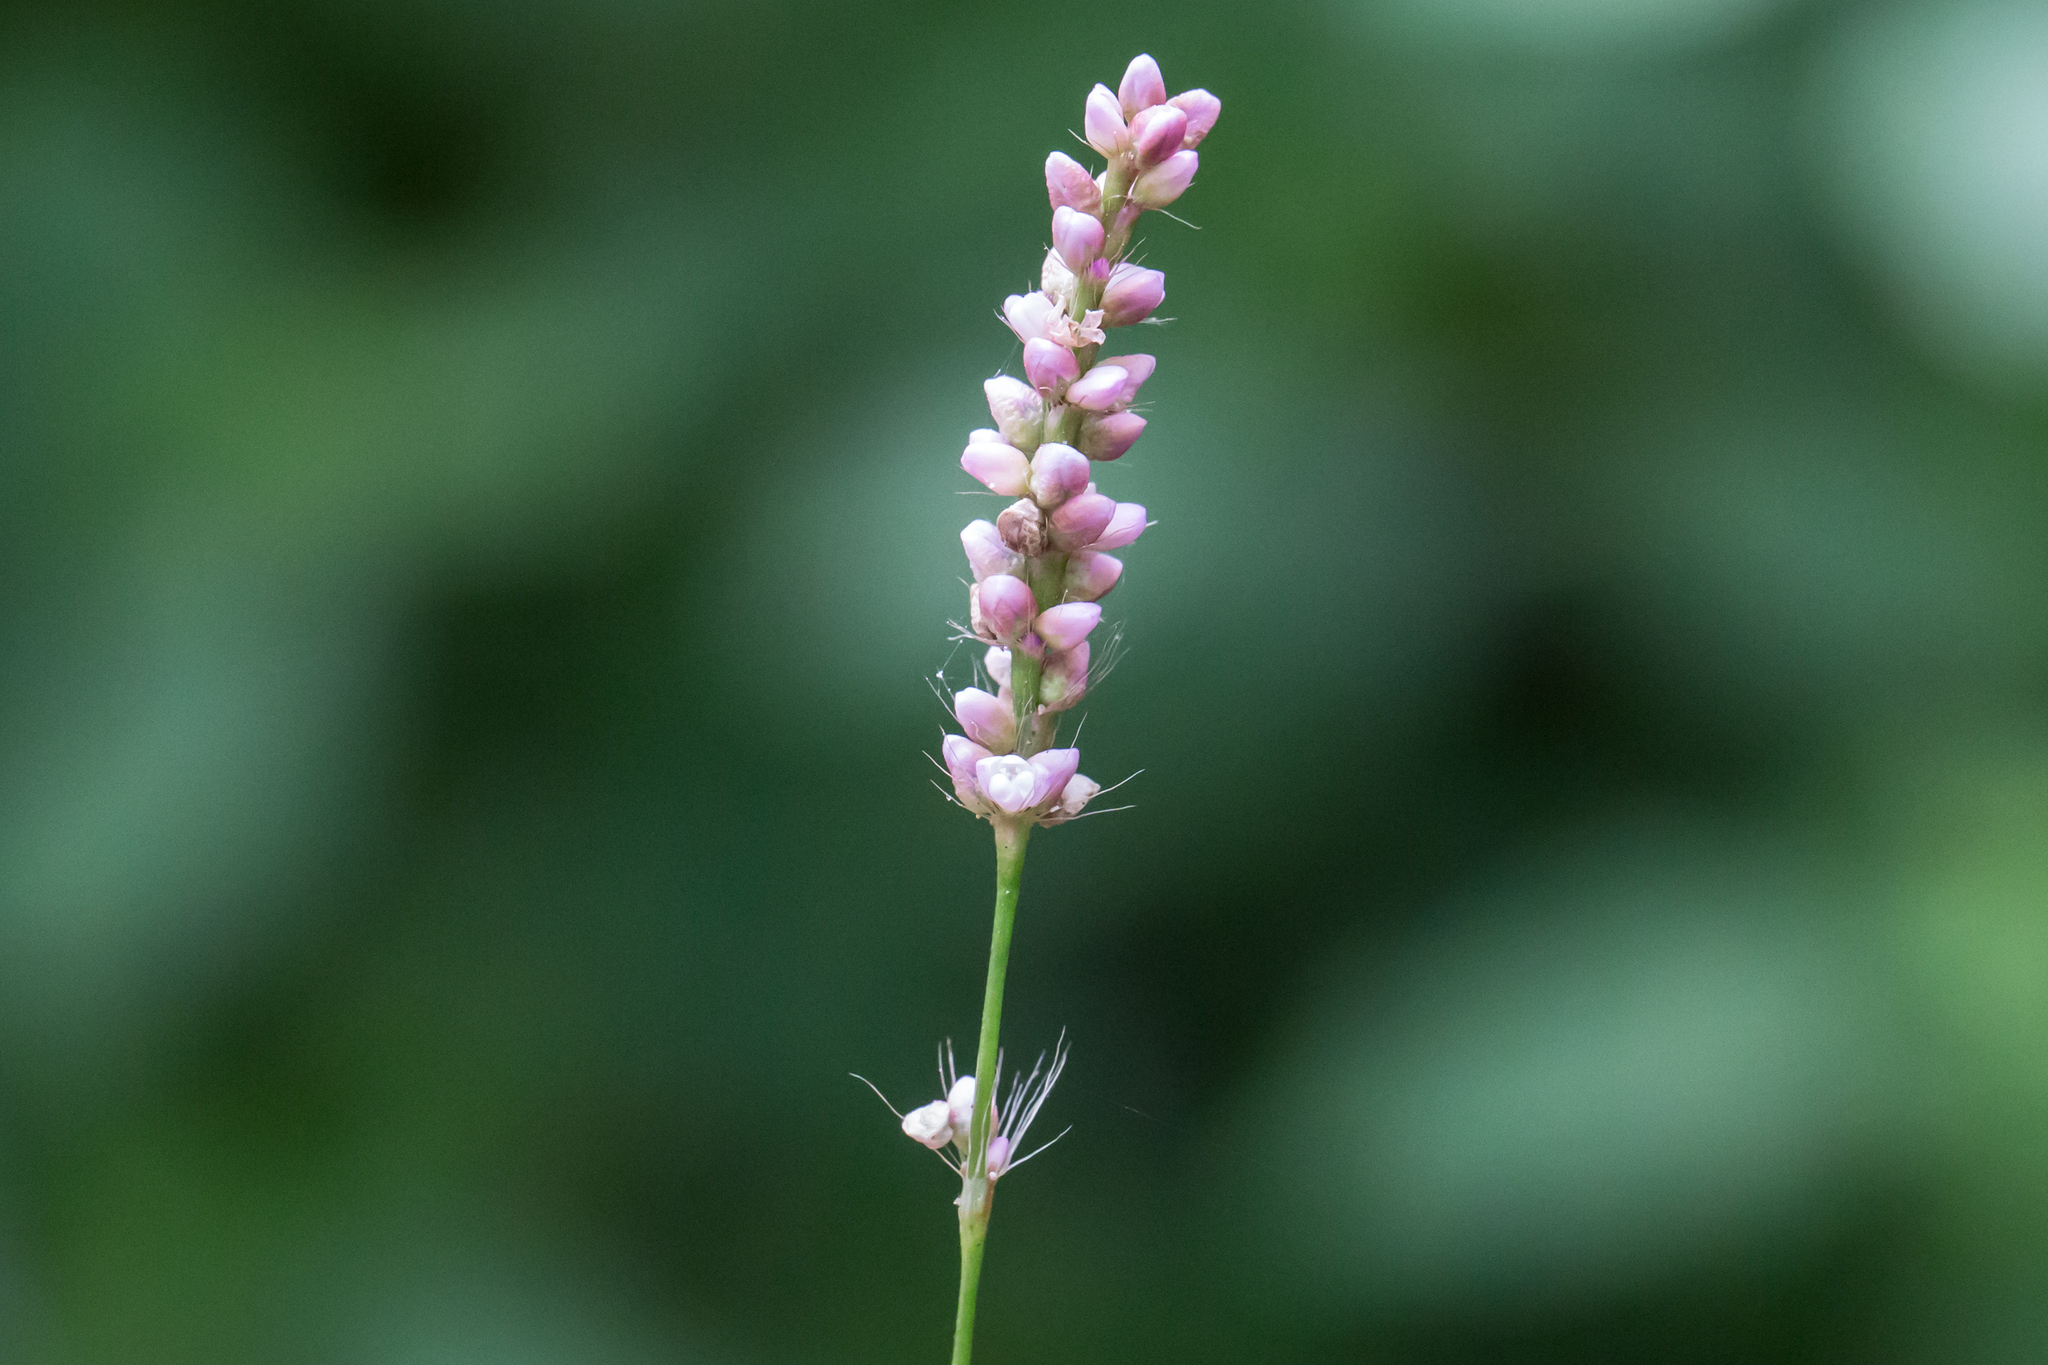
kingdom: Plantae
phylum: Tracheophyta
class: Magnoliopsida
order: Caryophyllales
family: Polygonaceae
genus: Persicaria
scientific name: Persicaria longiseta
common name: Bristly lady's-thumb
